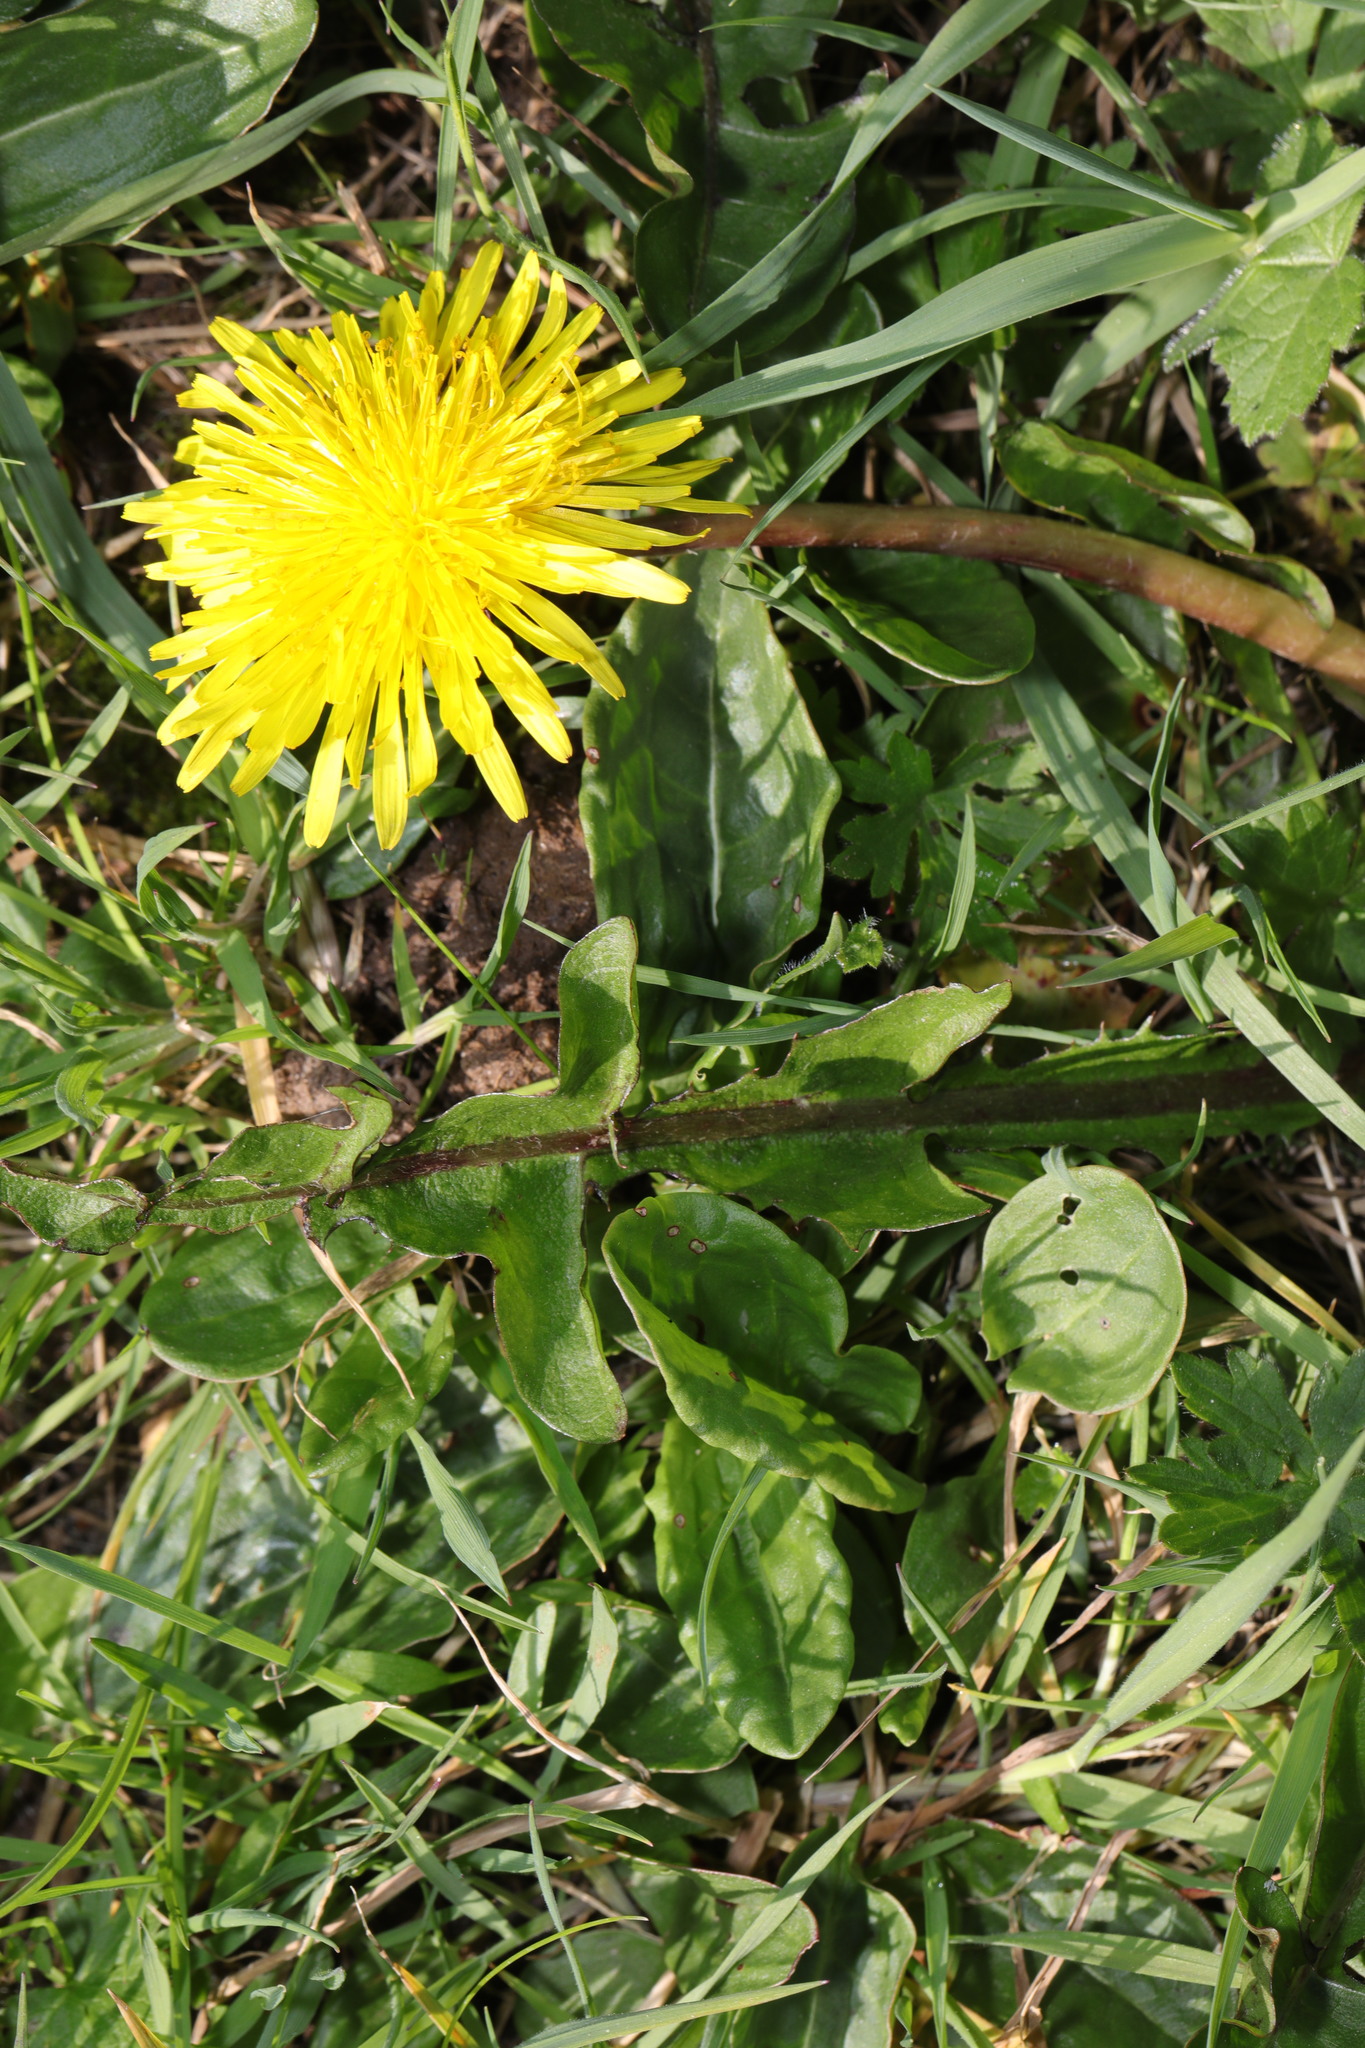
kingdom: Plantae
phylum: Tracheophyta
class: Magnoliopsida
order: Asterales
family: Asteraceae
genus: Taraxacum
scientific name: Taraxacum officinale
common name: Common dandelion
